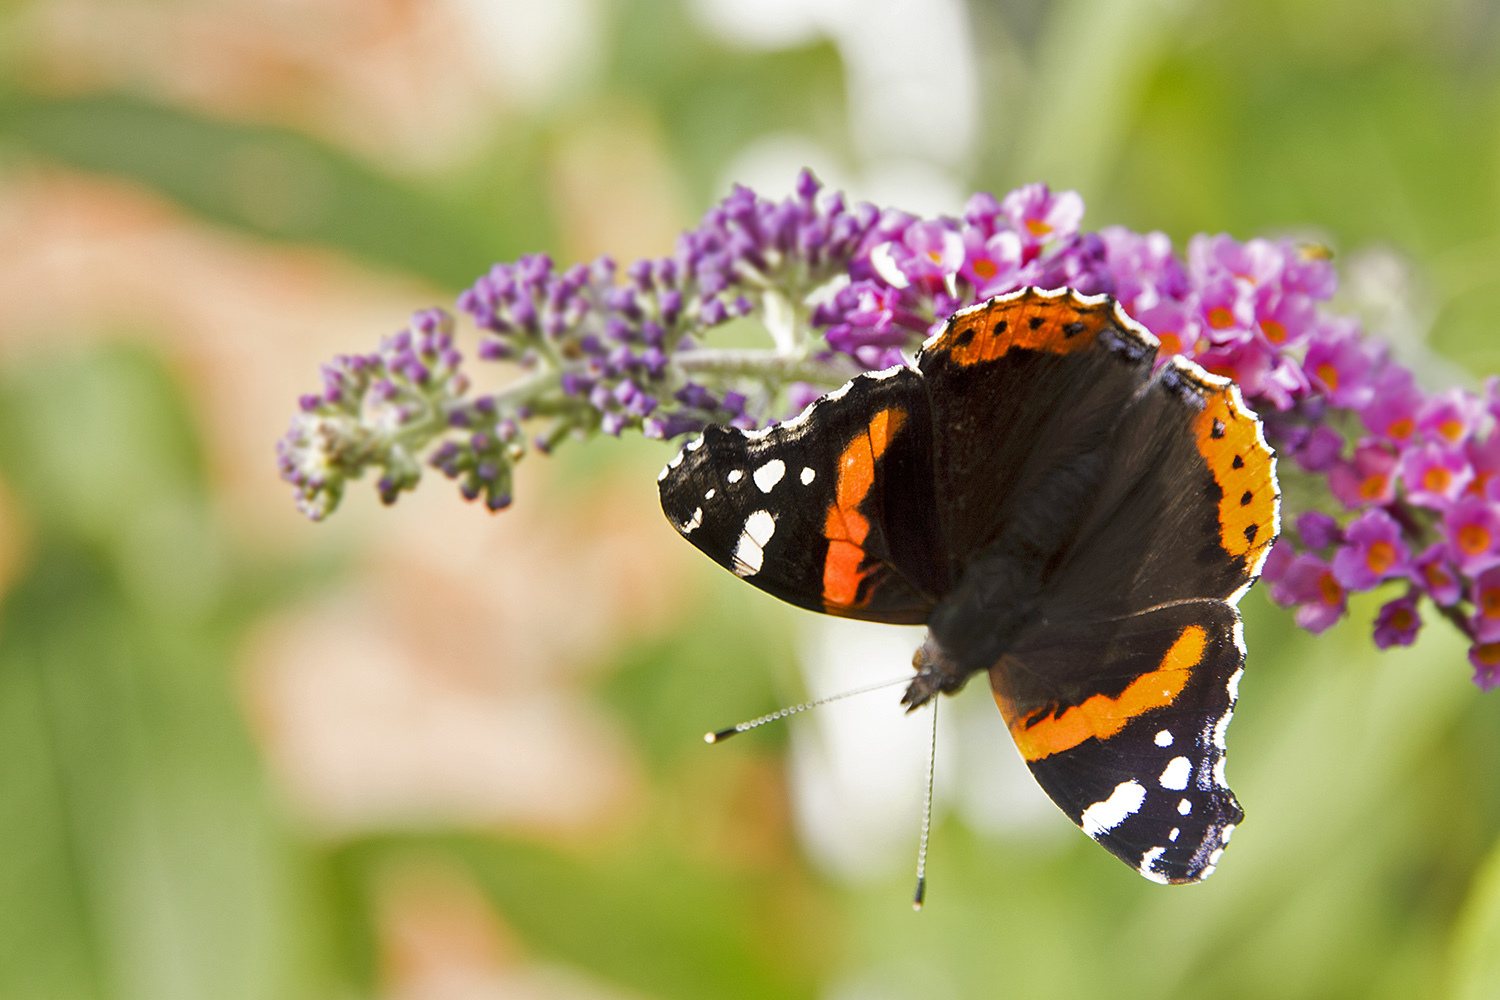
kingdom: Animalia
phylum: Arthropoda
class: Insecta
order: Lepidoptera
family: Nymphalidae
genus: Vanessa
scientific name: Vanessa atalanta
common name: Red admiral
